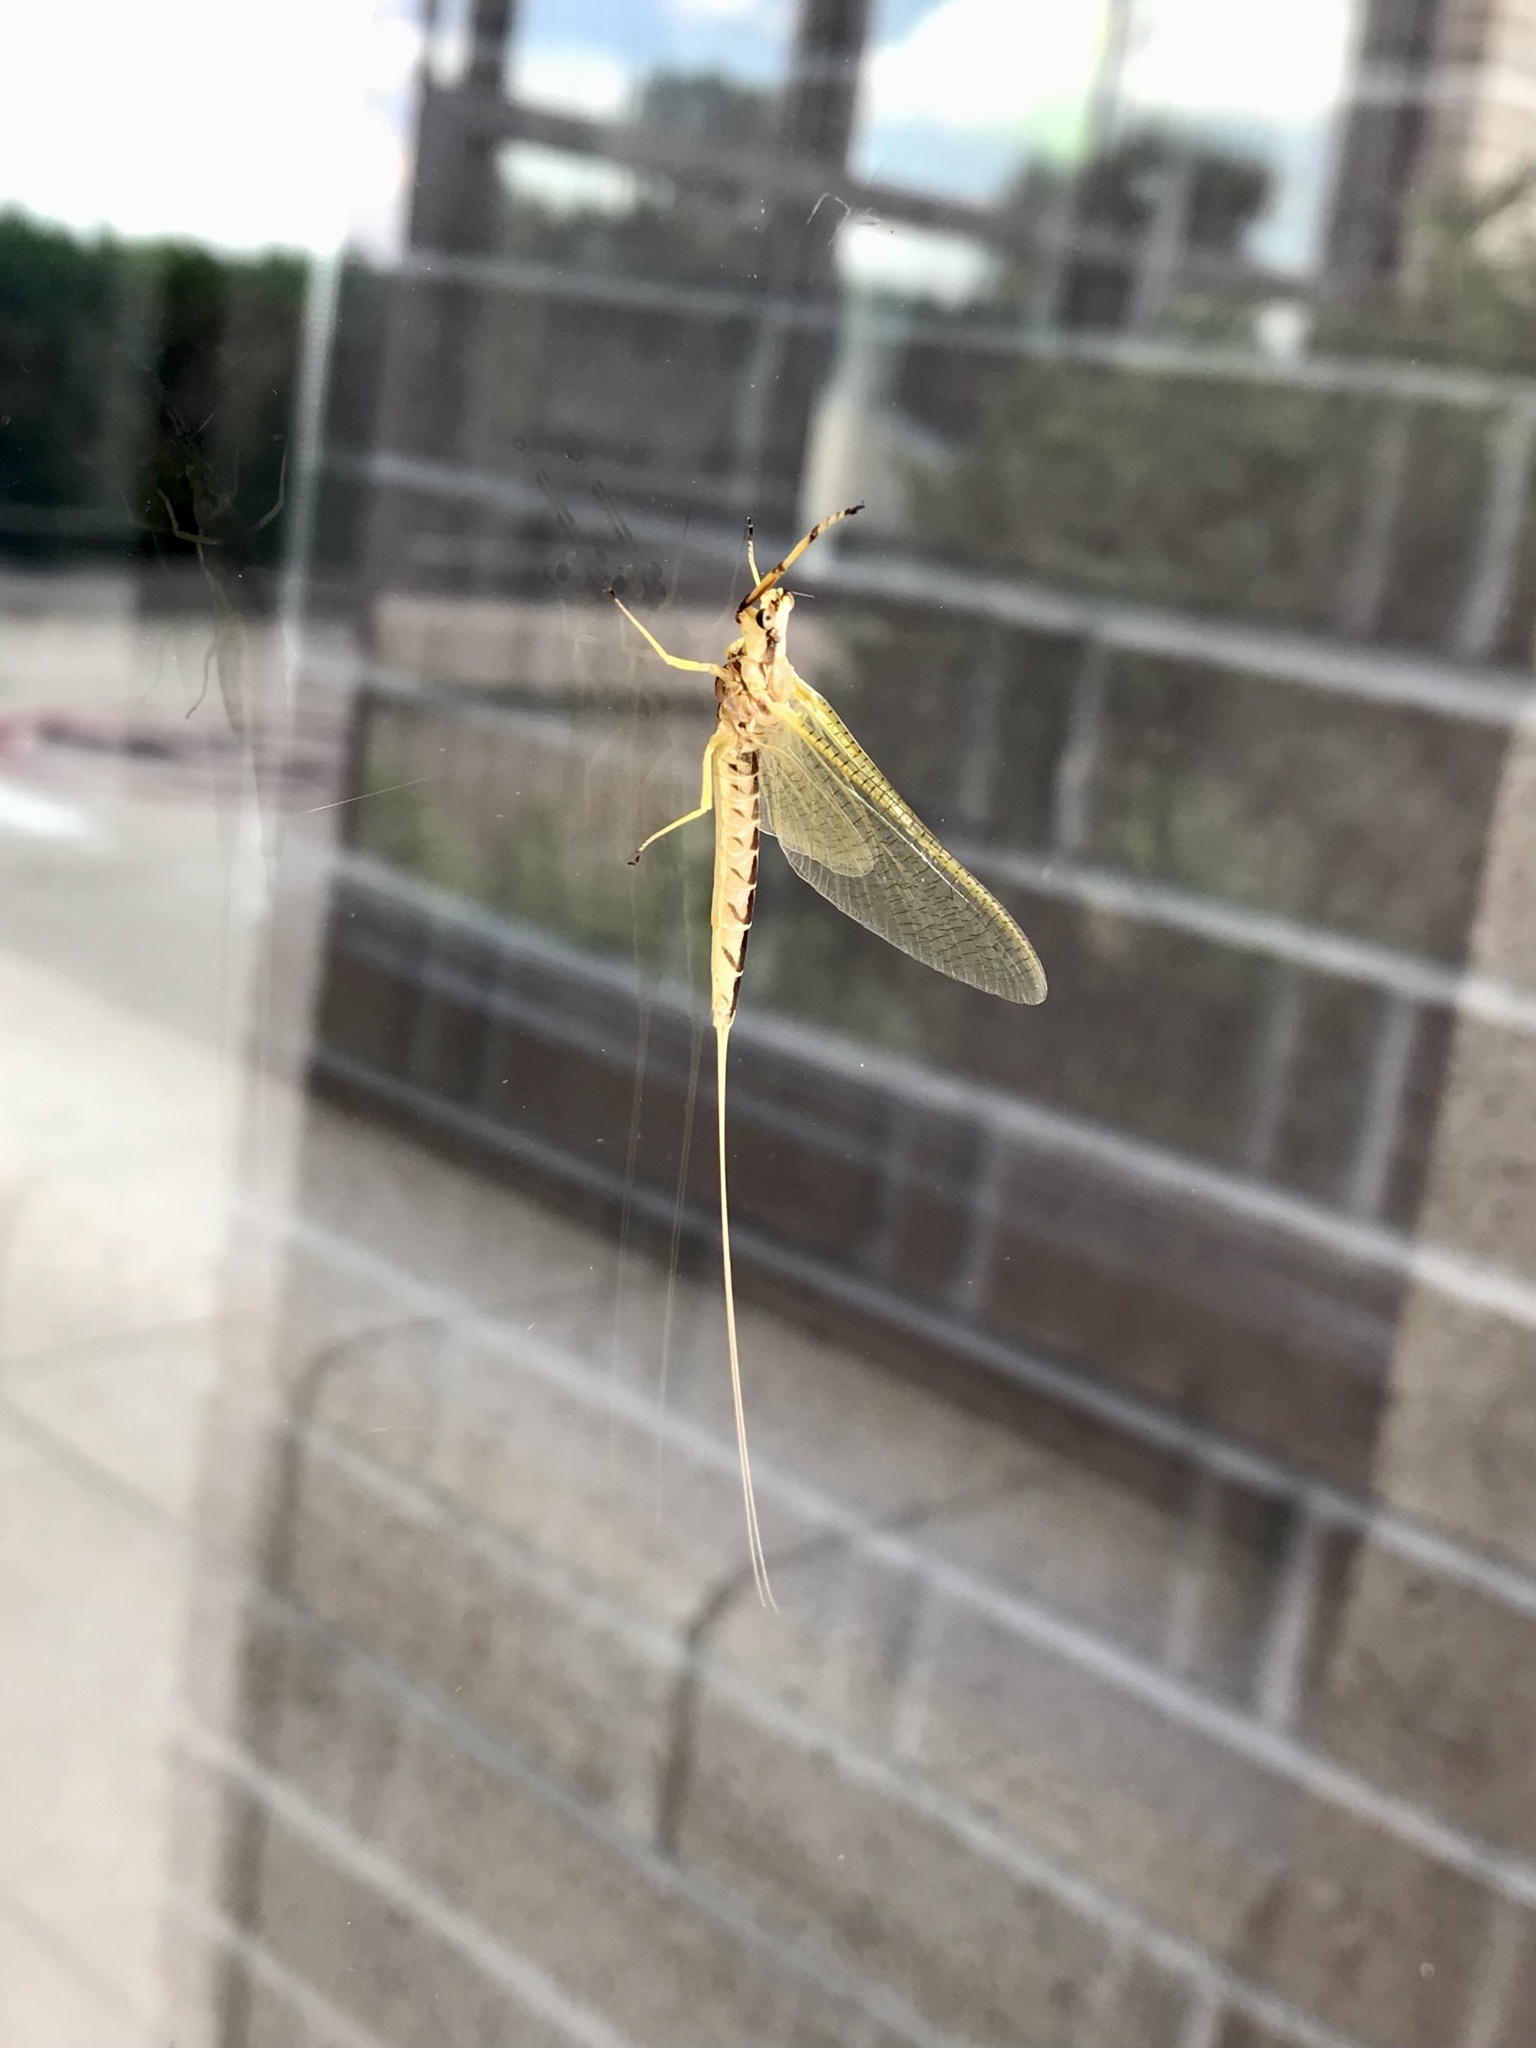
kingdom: Animalia
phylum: Arthropoda
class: Insecta
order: Ephemeroptera
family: Ephemeridae
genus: Hexagenia
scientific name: Hexagenia limbata
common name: Giant mayfly
